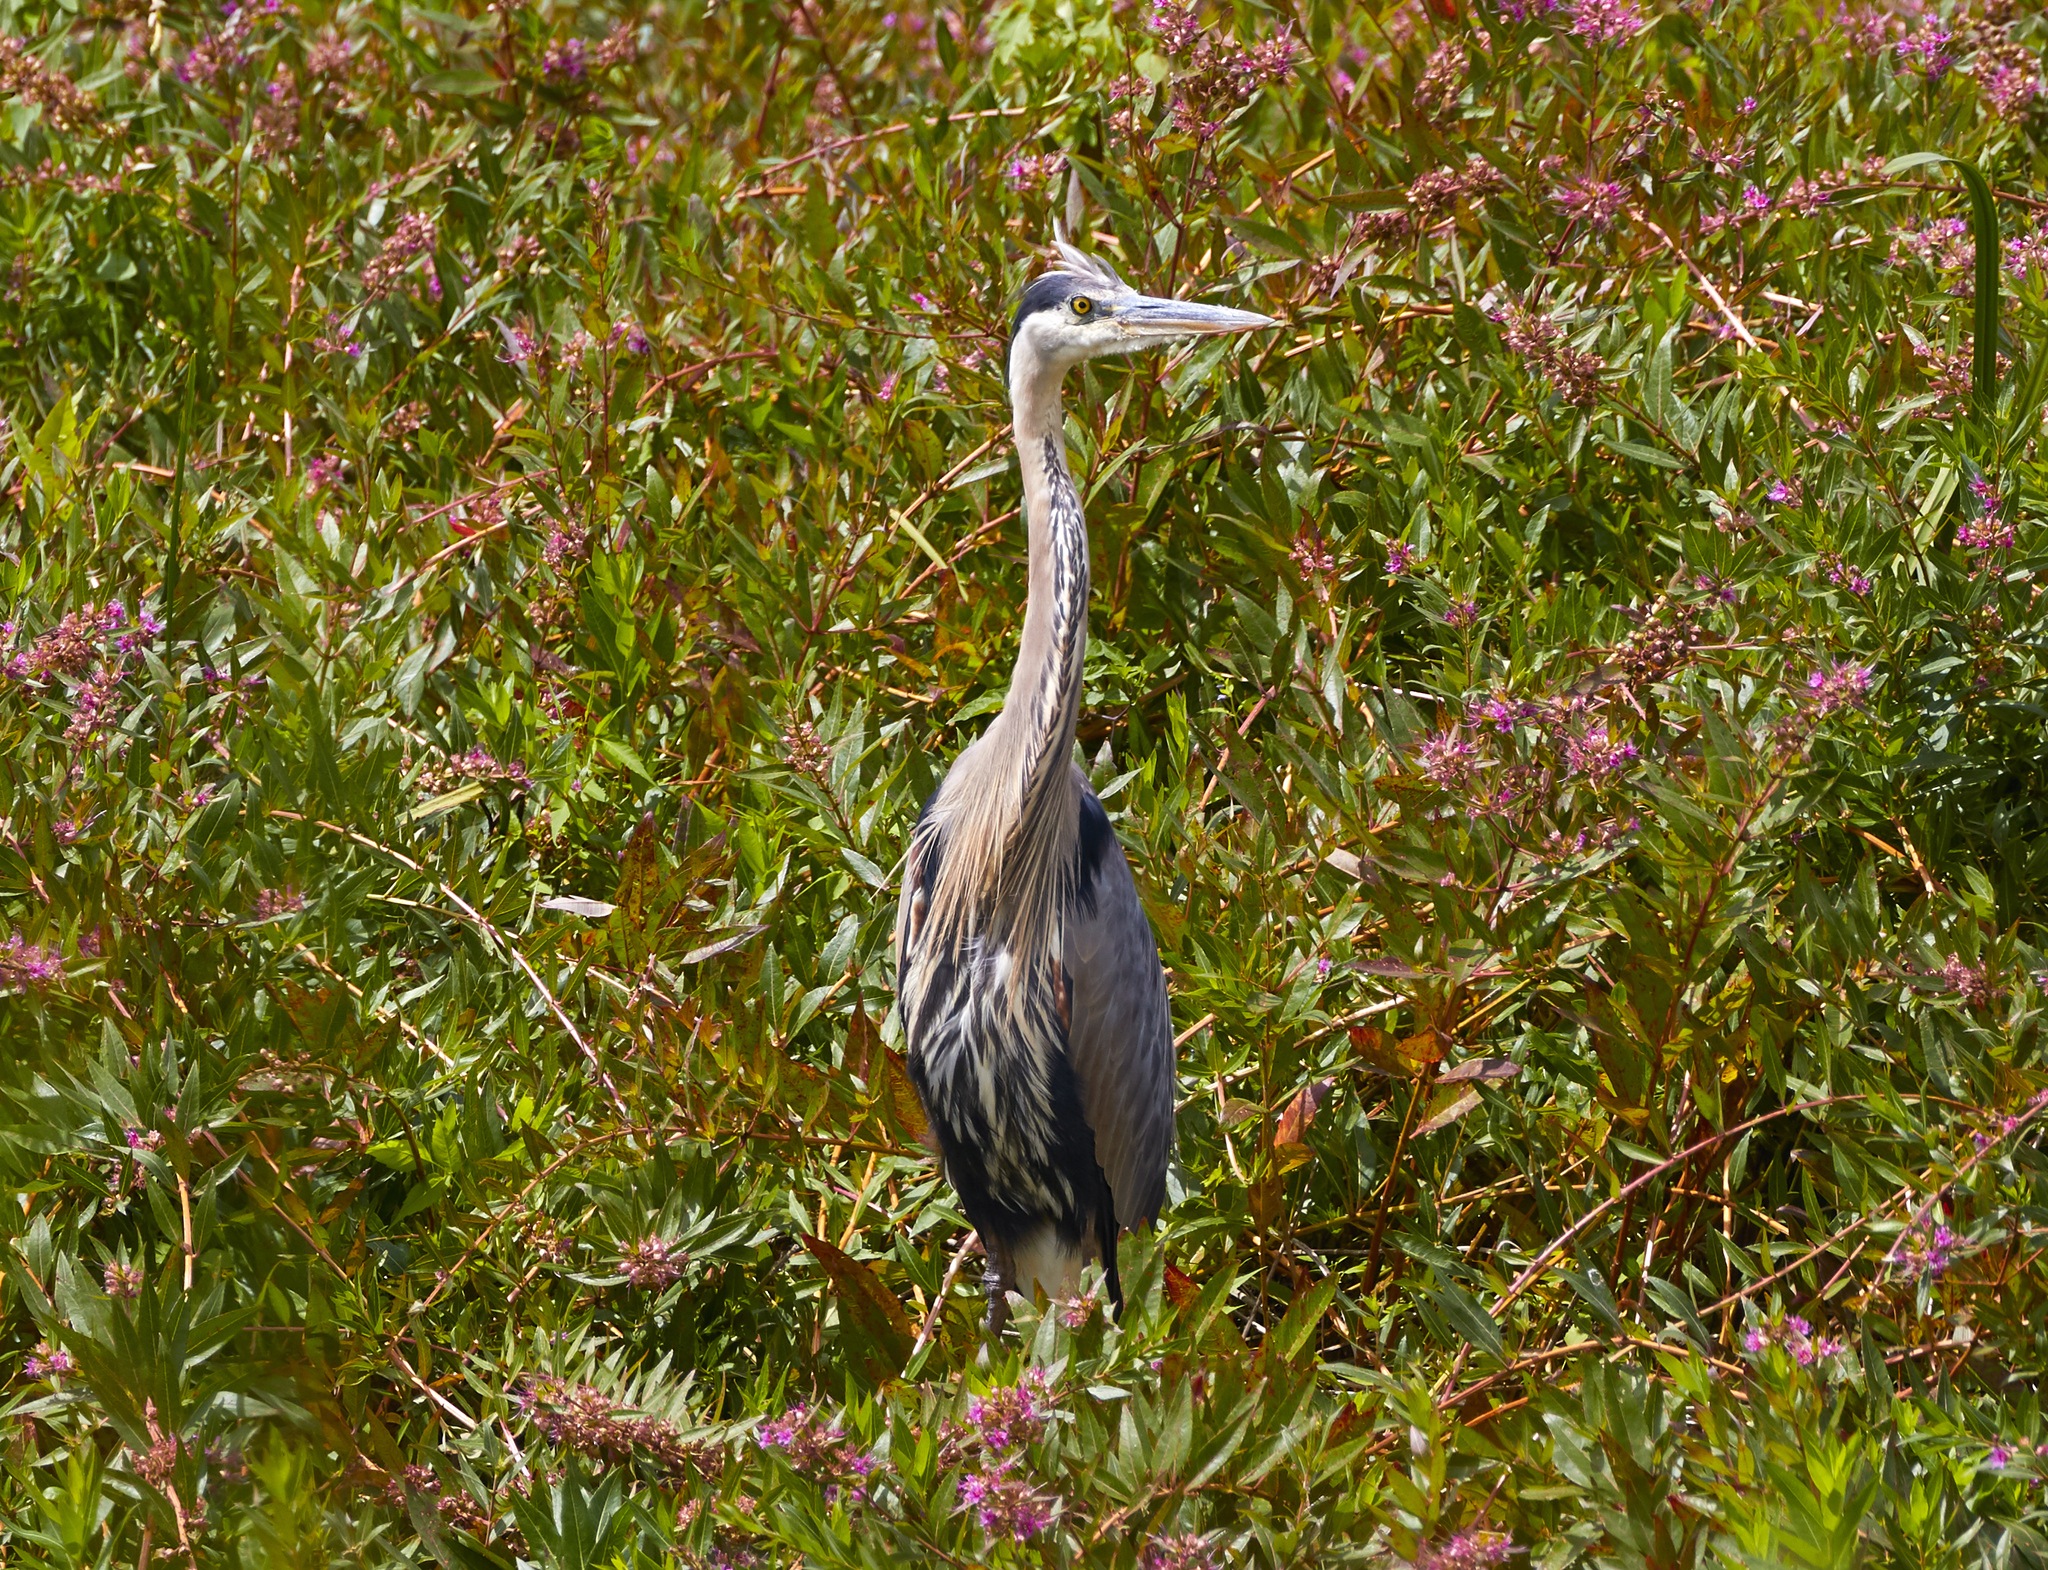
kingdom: Animalia
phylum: Chordata
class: Aves
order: Pelecaniformes
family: Ardeidae
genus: Ardea
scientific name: Ardea herodias
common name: Great blue heron
